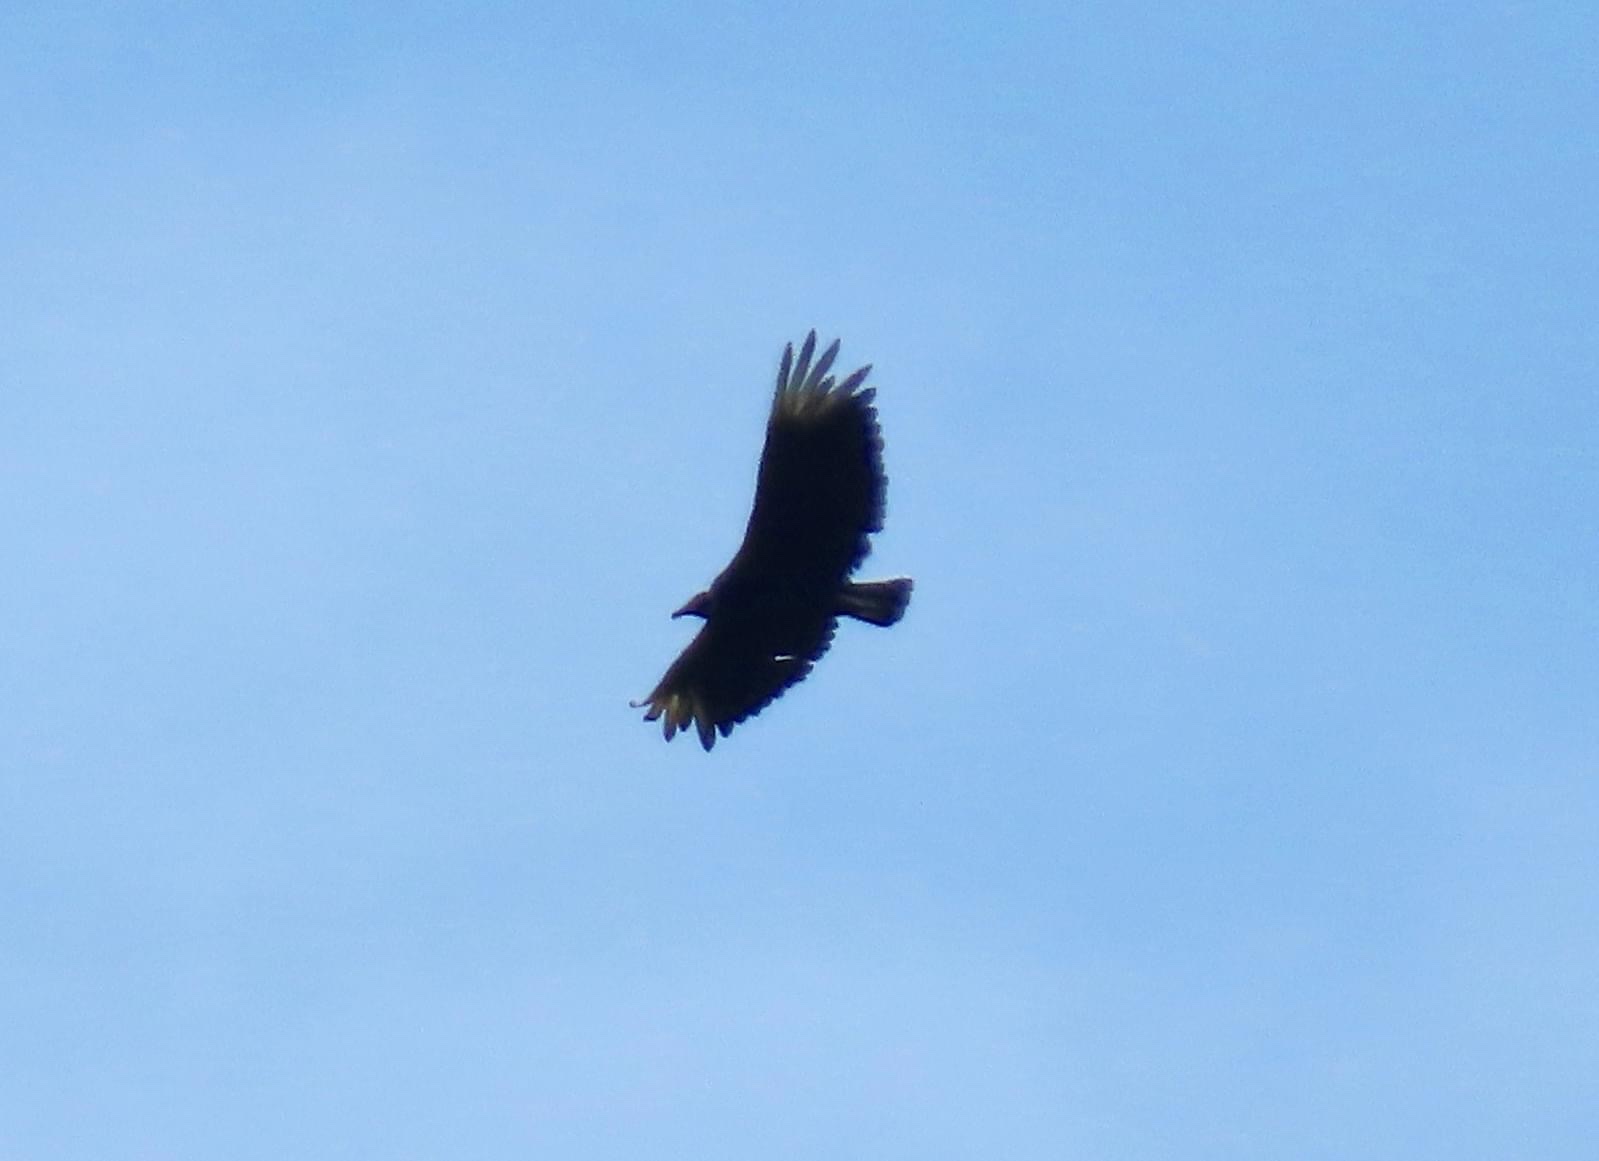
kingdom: Animalia
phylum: Chordata
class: Aves
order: Accipitriformes
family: Cathartidae
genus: Coragyps
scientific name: Coragyps atratus
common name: Black vulture
